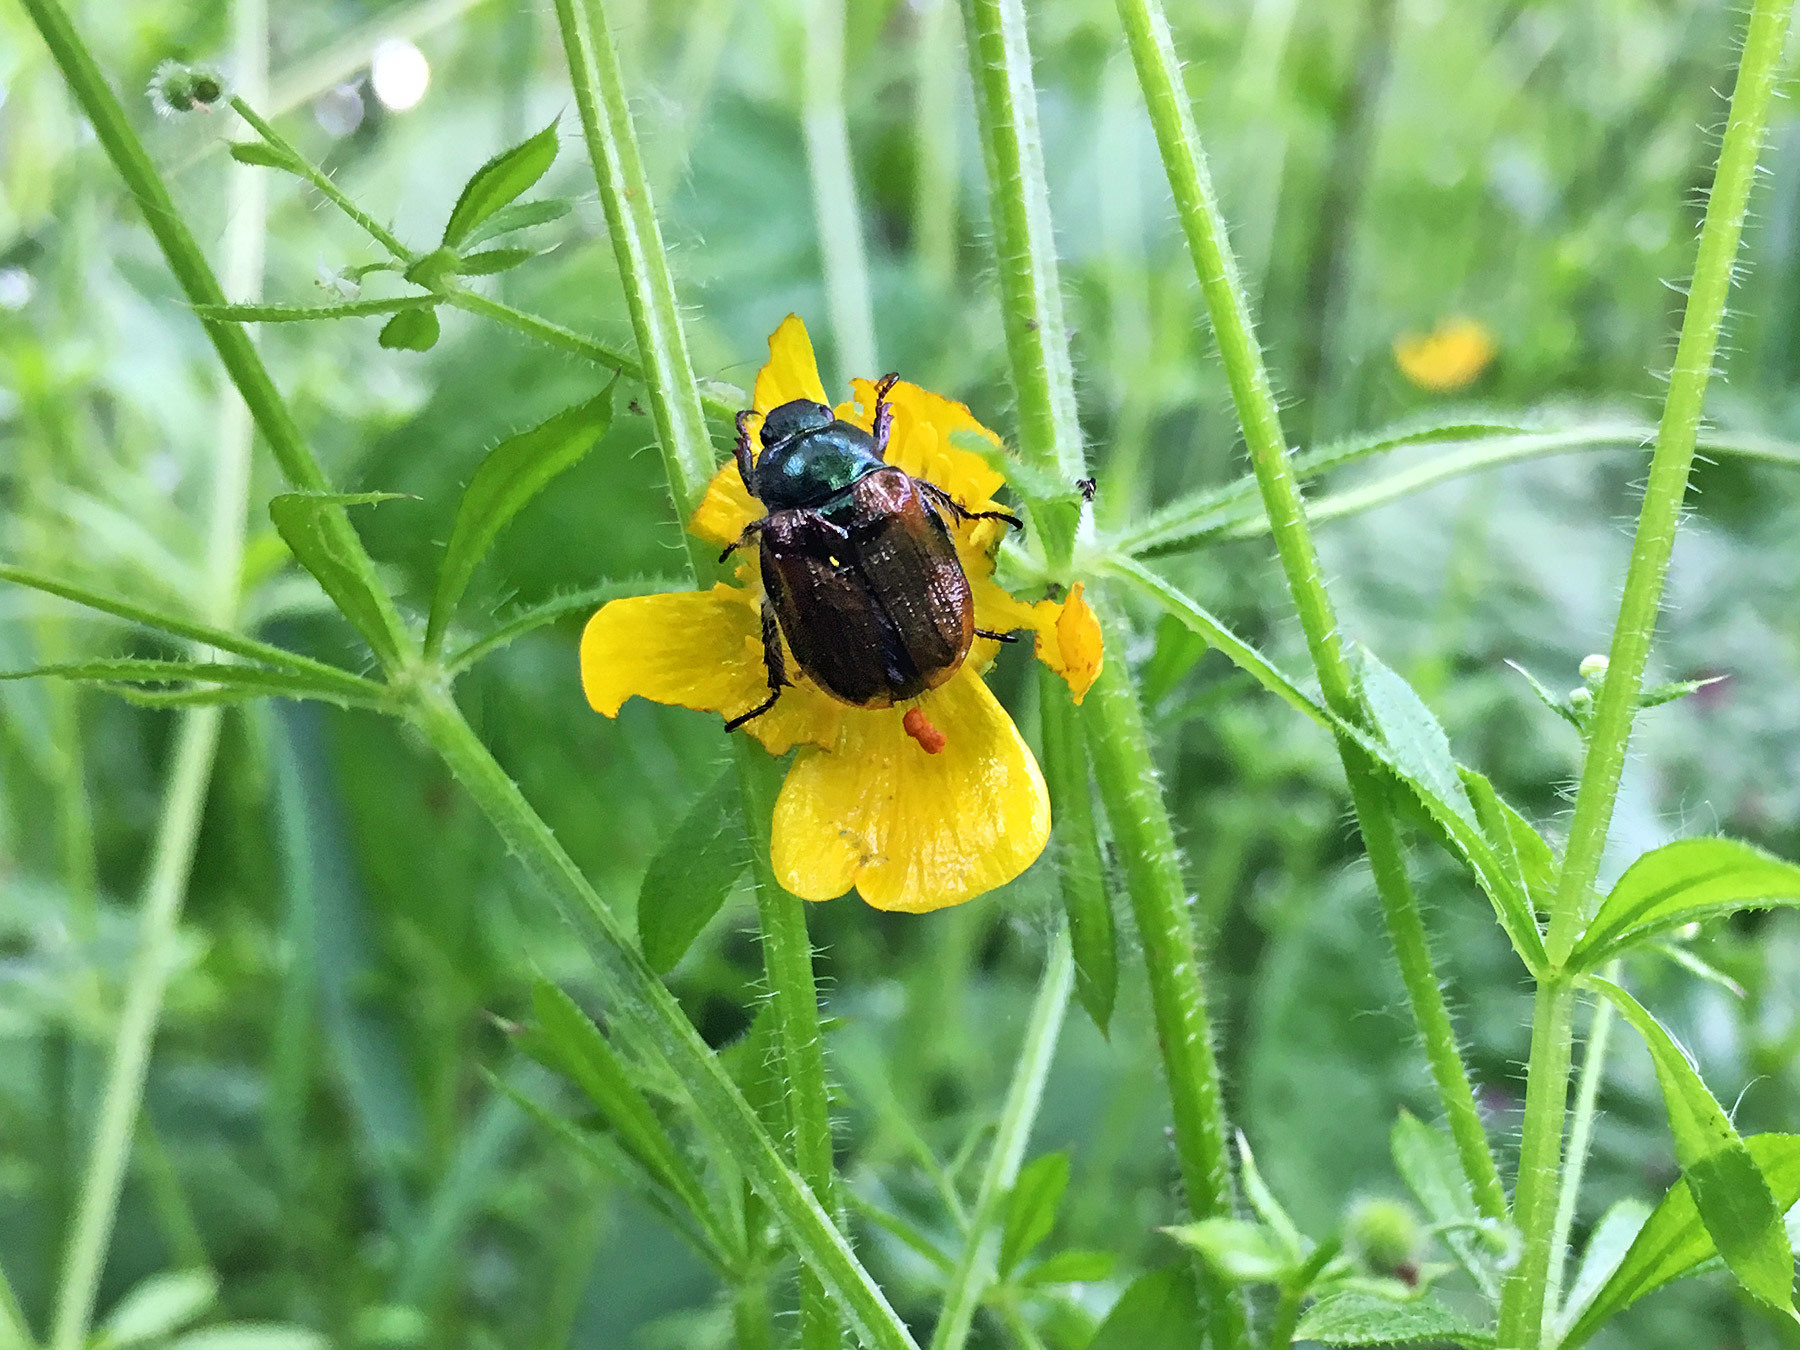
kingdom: Animalia
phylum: Arthropoda
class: Insecta
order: Coleoptera
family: Scarabaeidae
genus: Phyllopertha
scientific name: Phyllopertha horticola
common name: Garden chafer
